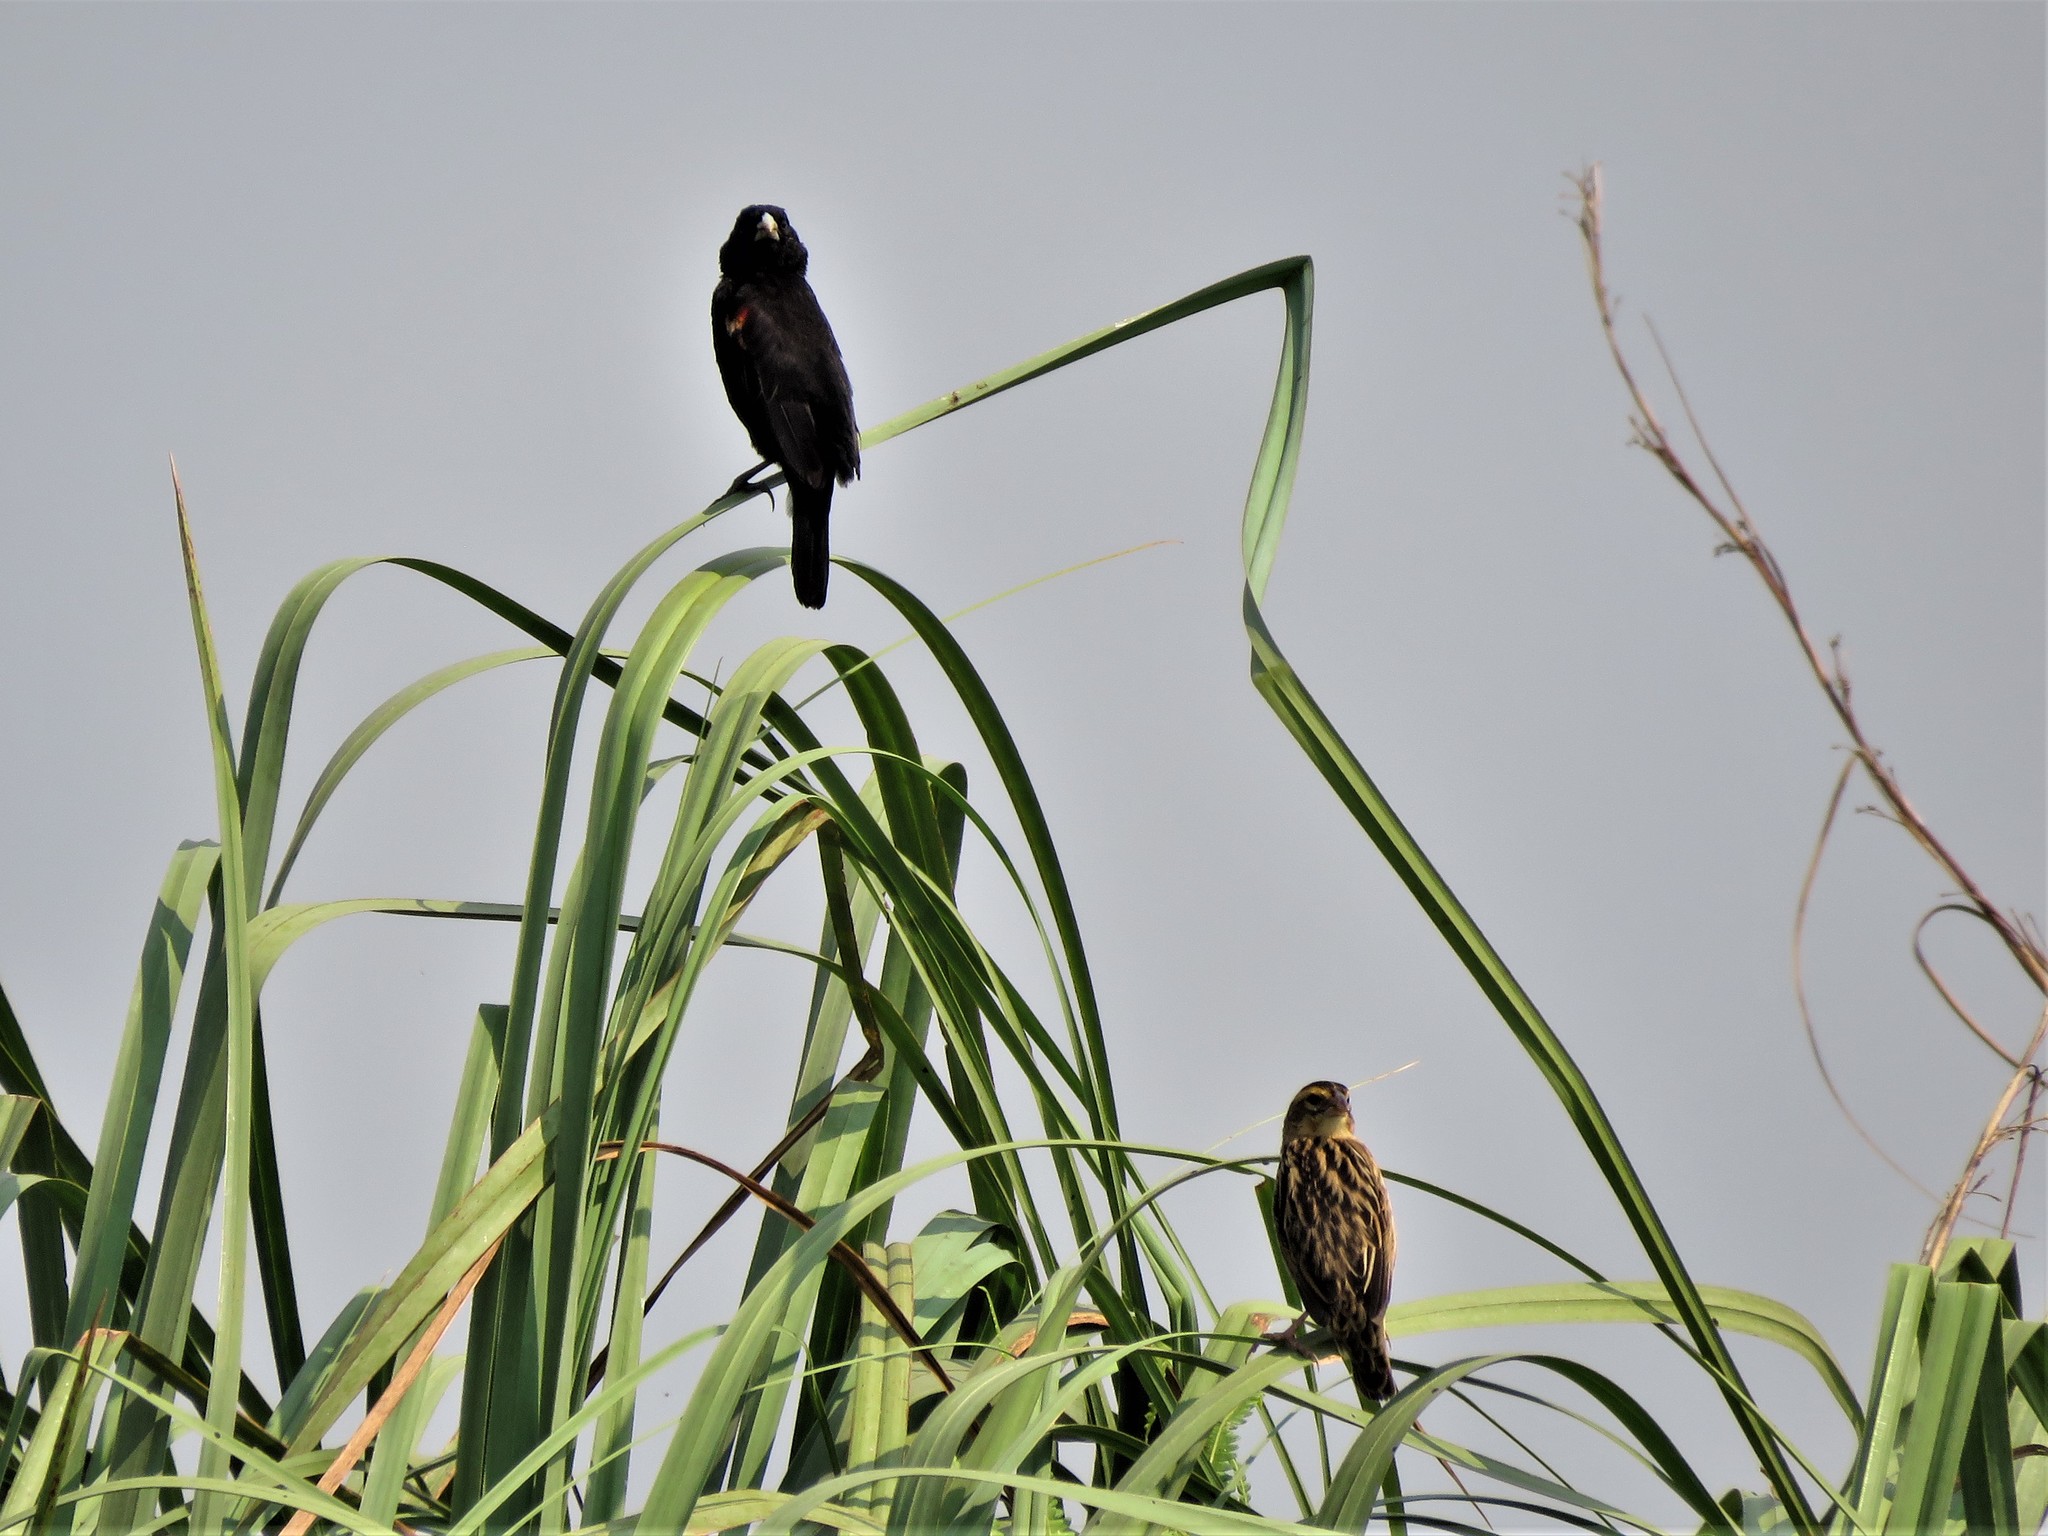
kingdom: Animalia
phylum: Chordata
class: Aves
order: Passeriformes
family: Ploceidae
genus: Euplectes
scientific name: Euplectes axillaris
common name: Fan-tailed widowbird
